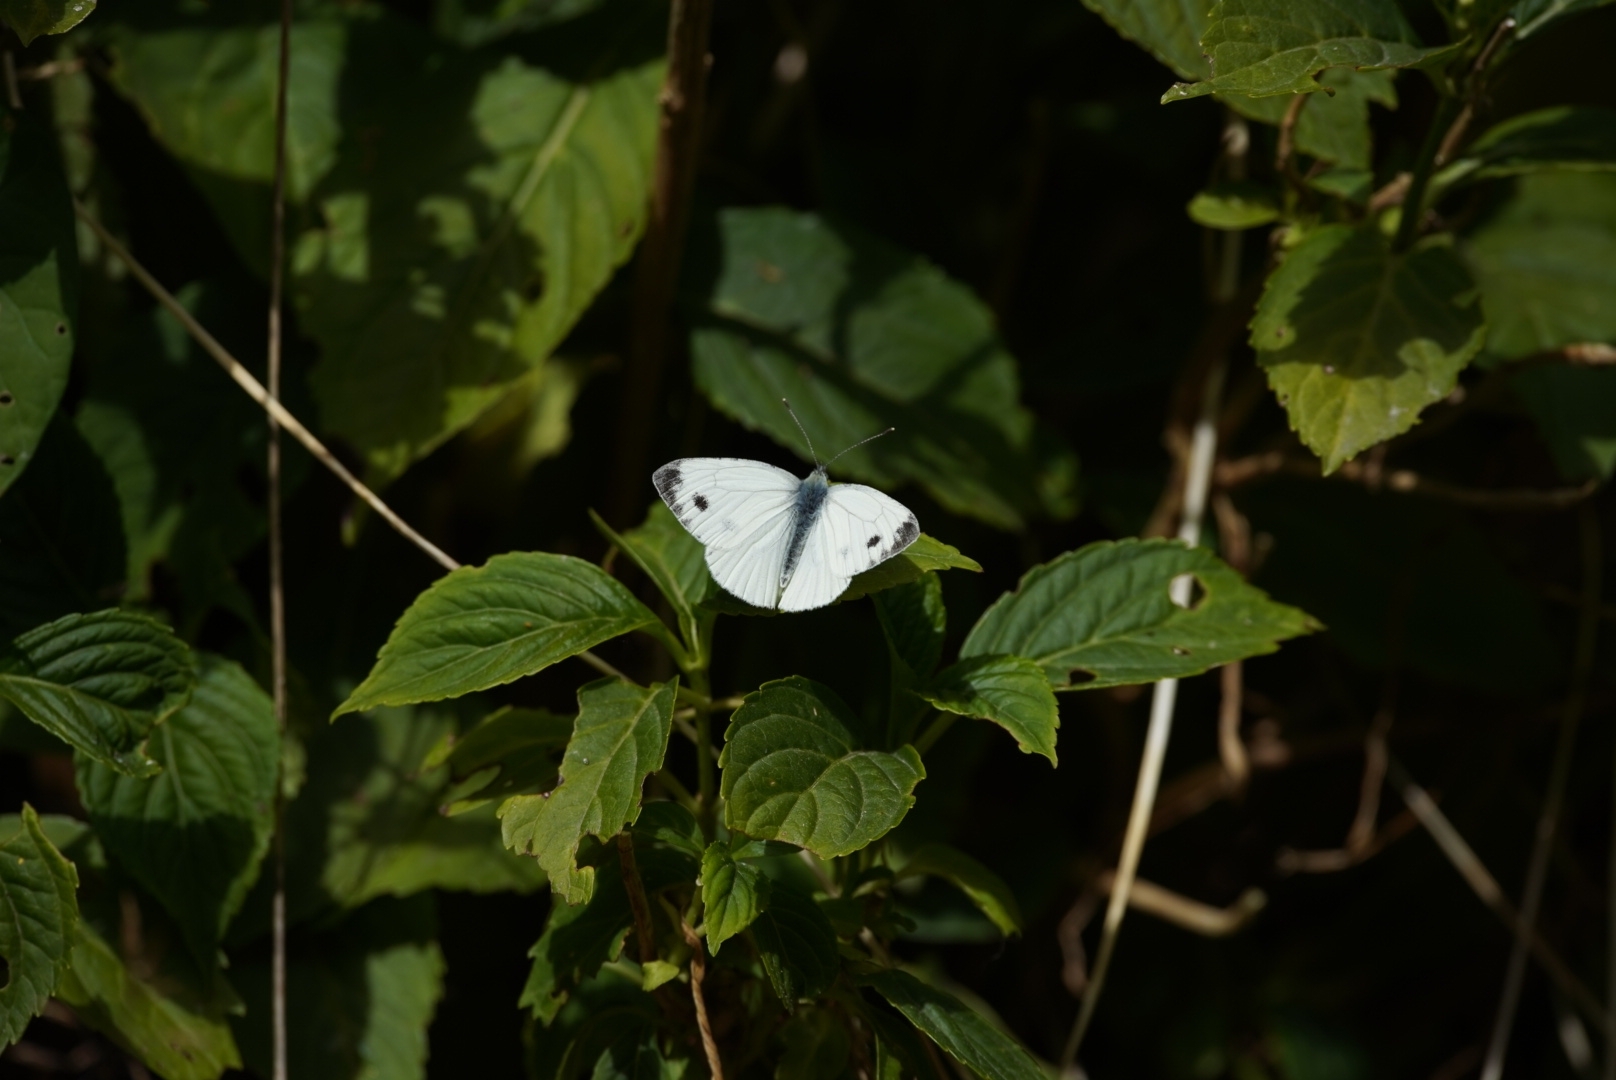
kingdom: Animalia
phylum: Arthropoda
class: Insecta
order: Lepidoptera
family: Pieridae
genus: Pieris
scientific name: Pieris napi
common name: Green-veined white
